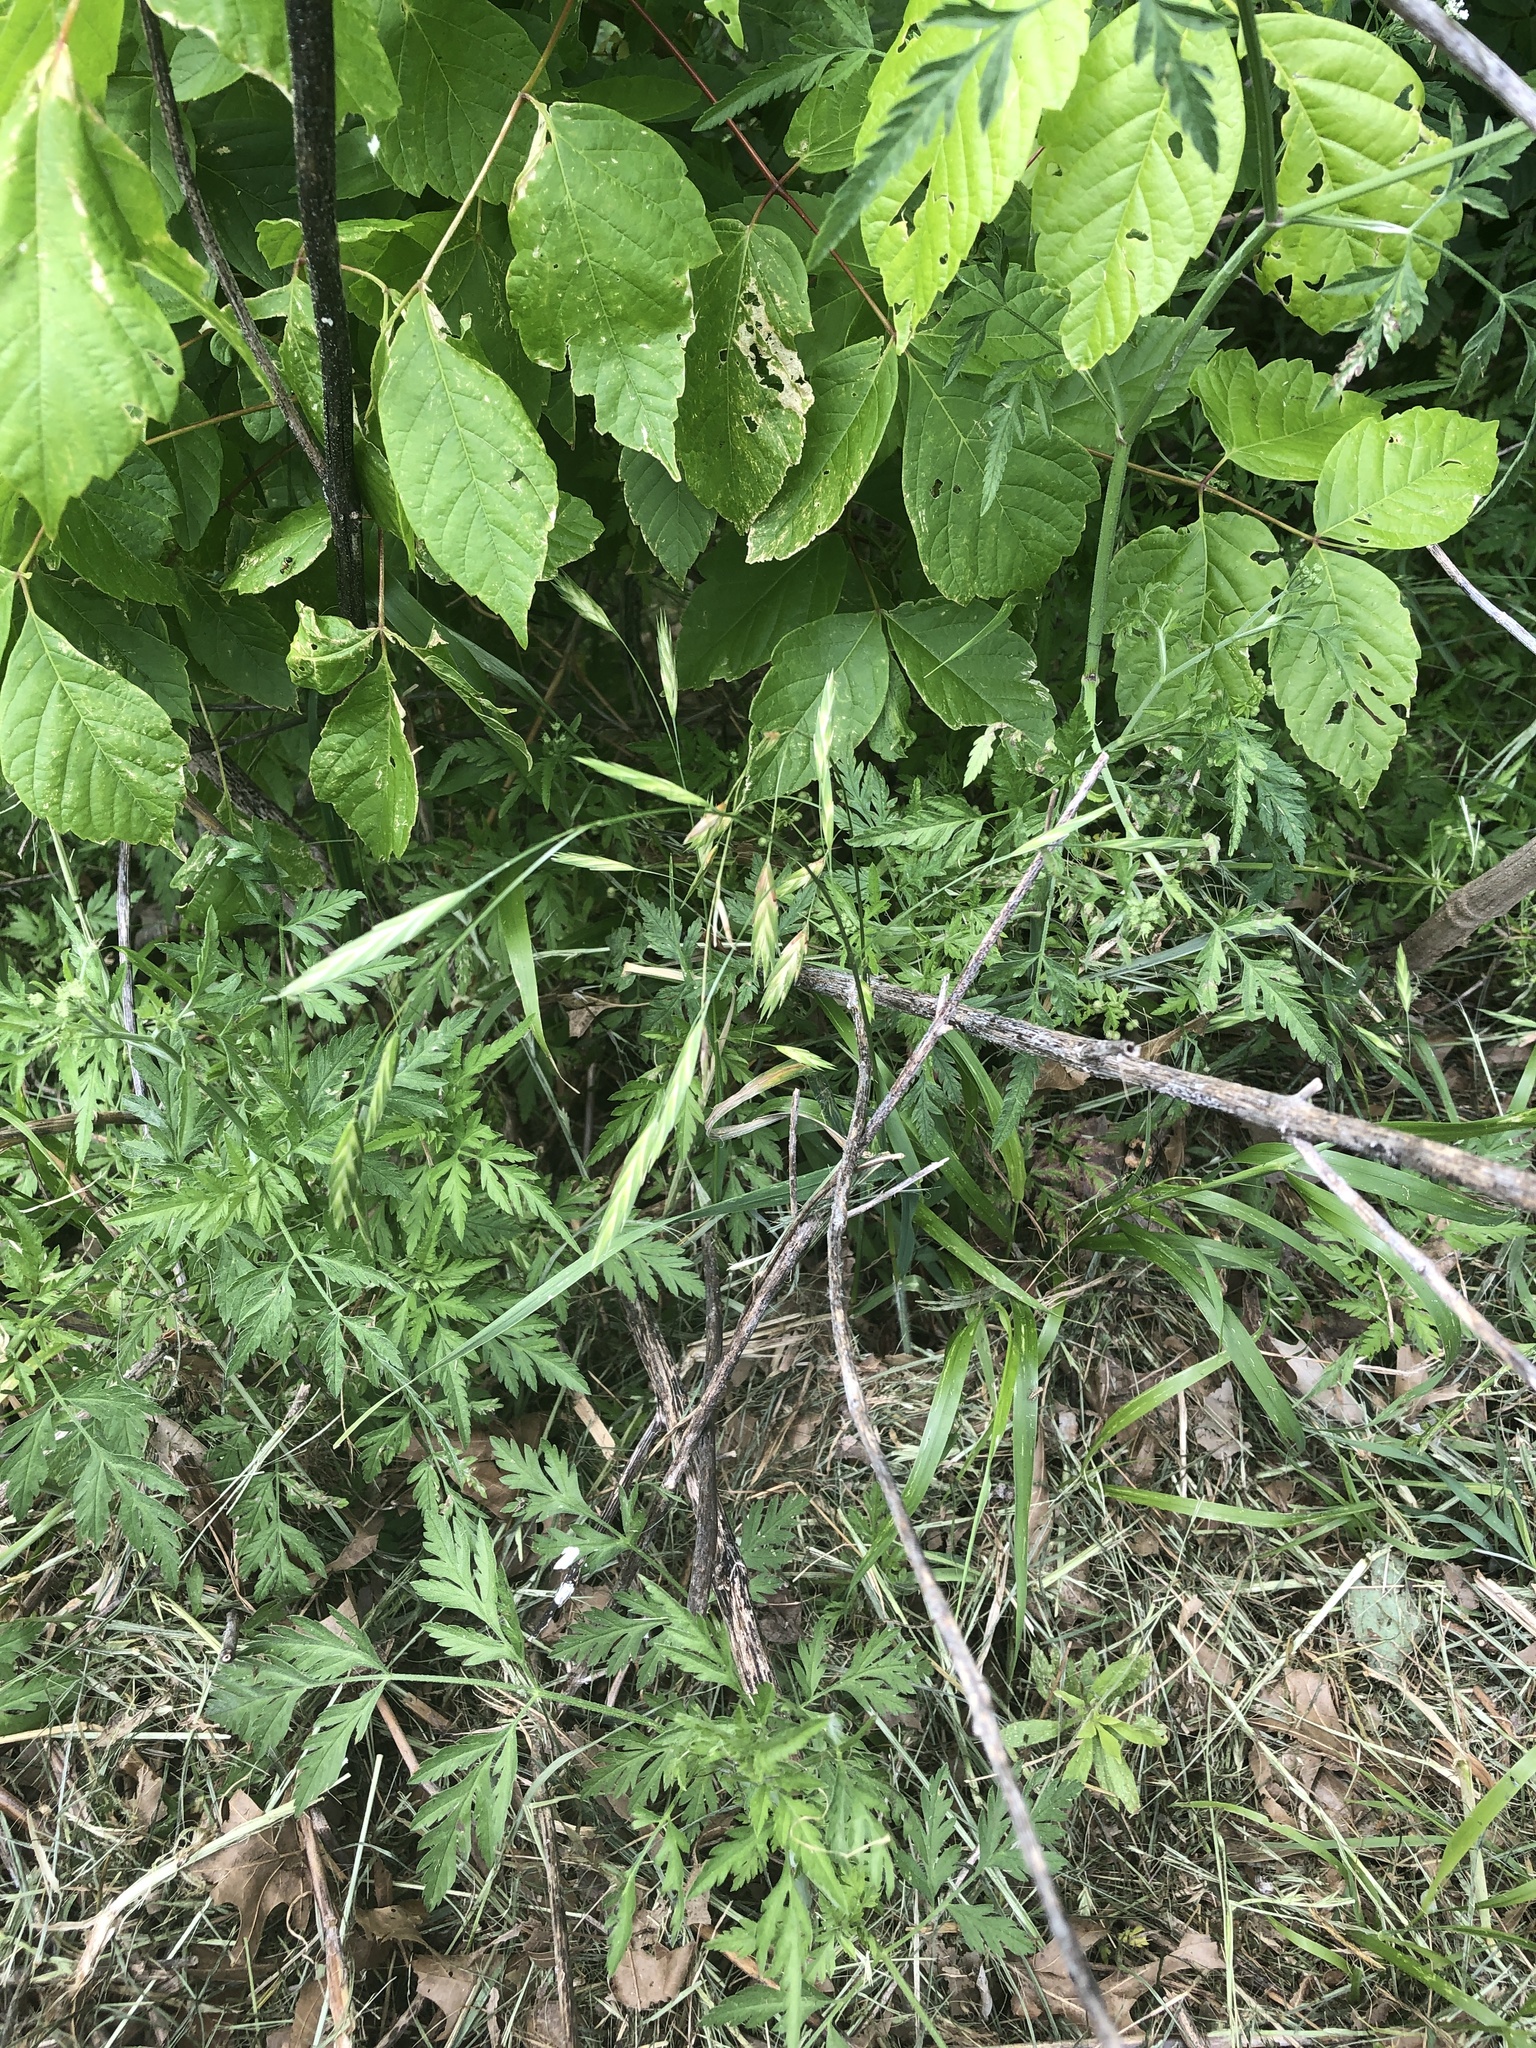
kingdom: Plantae
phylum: Tracheophyta
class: Liliopsida
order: Poales
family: Poaceae
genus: Bromus
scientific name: Bromus catharticus
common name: Rescuegrass
